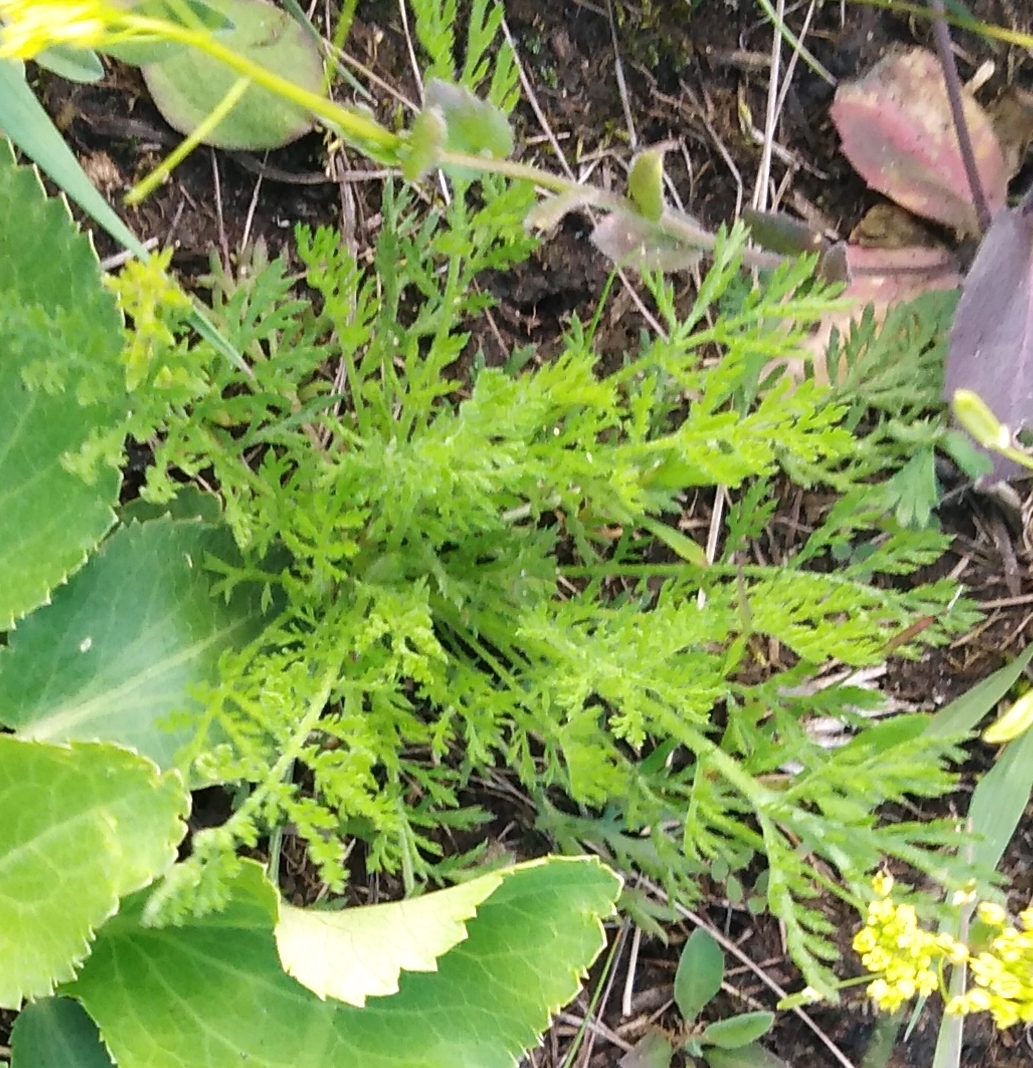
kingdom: Plantae
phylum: Tracheophyta
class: Magnoliopsida
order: Asterales
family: Asteraceae
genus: Achillea
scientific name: Achillea nobilis
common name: Noble yarrow
